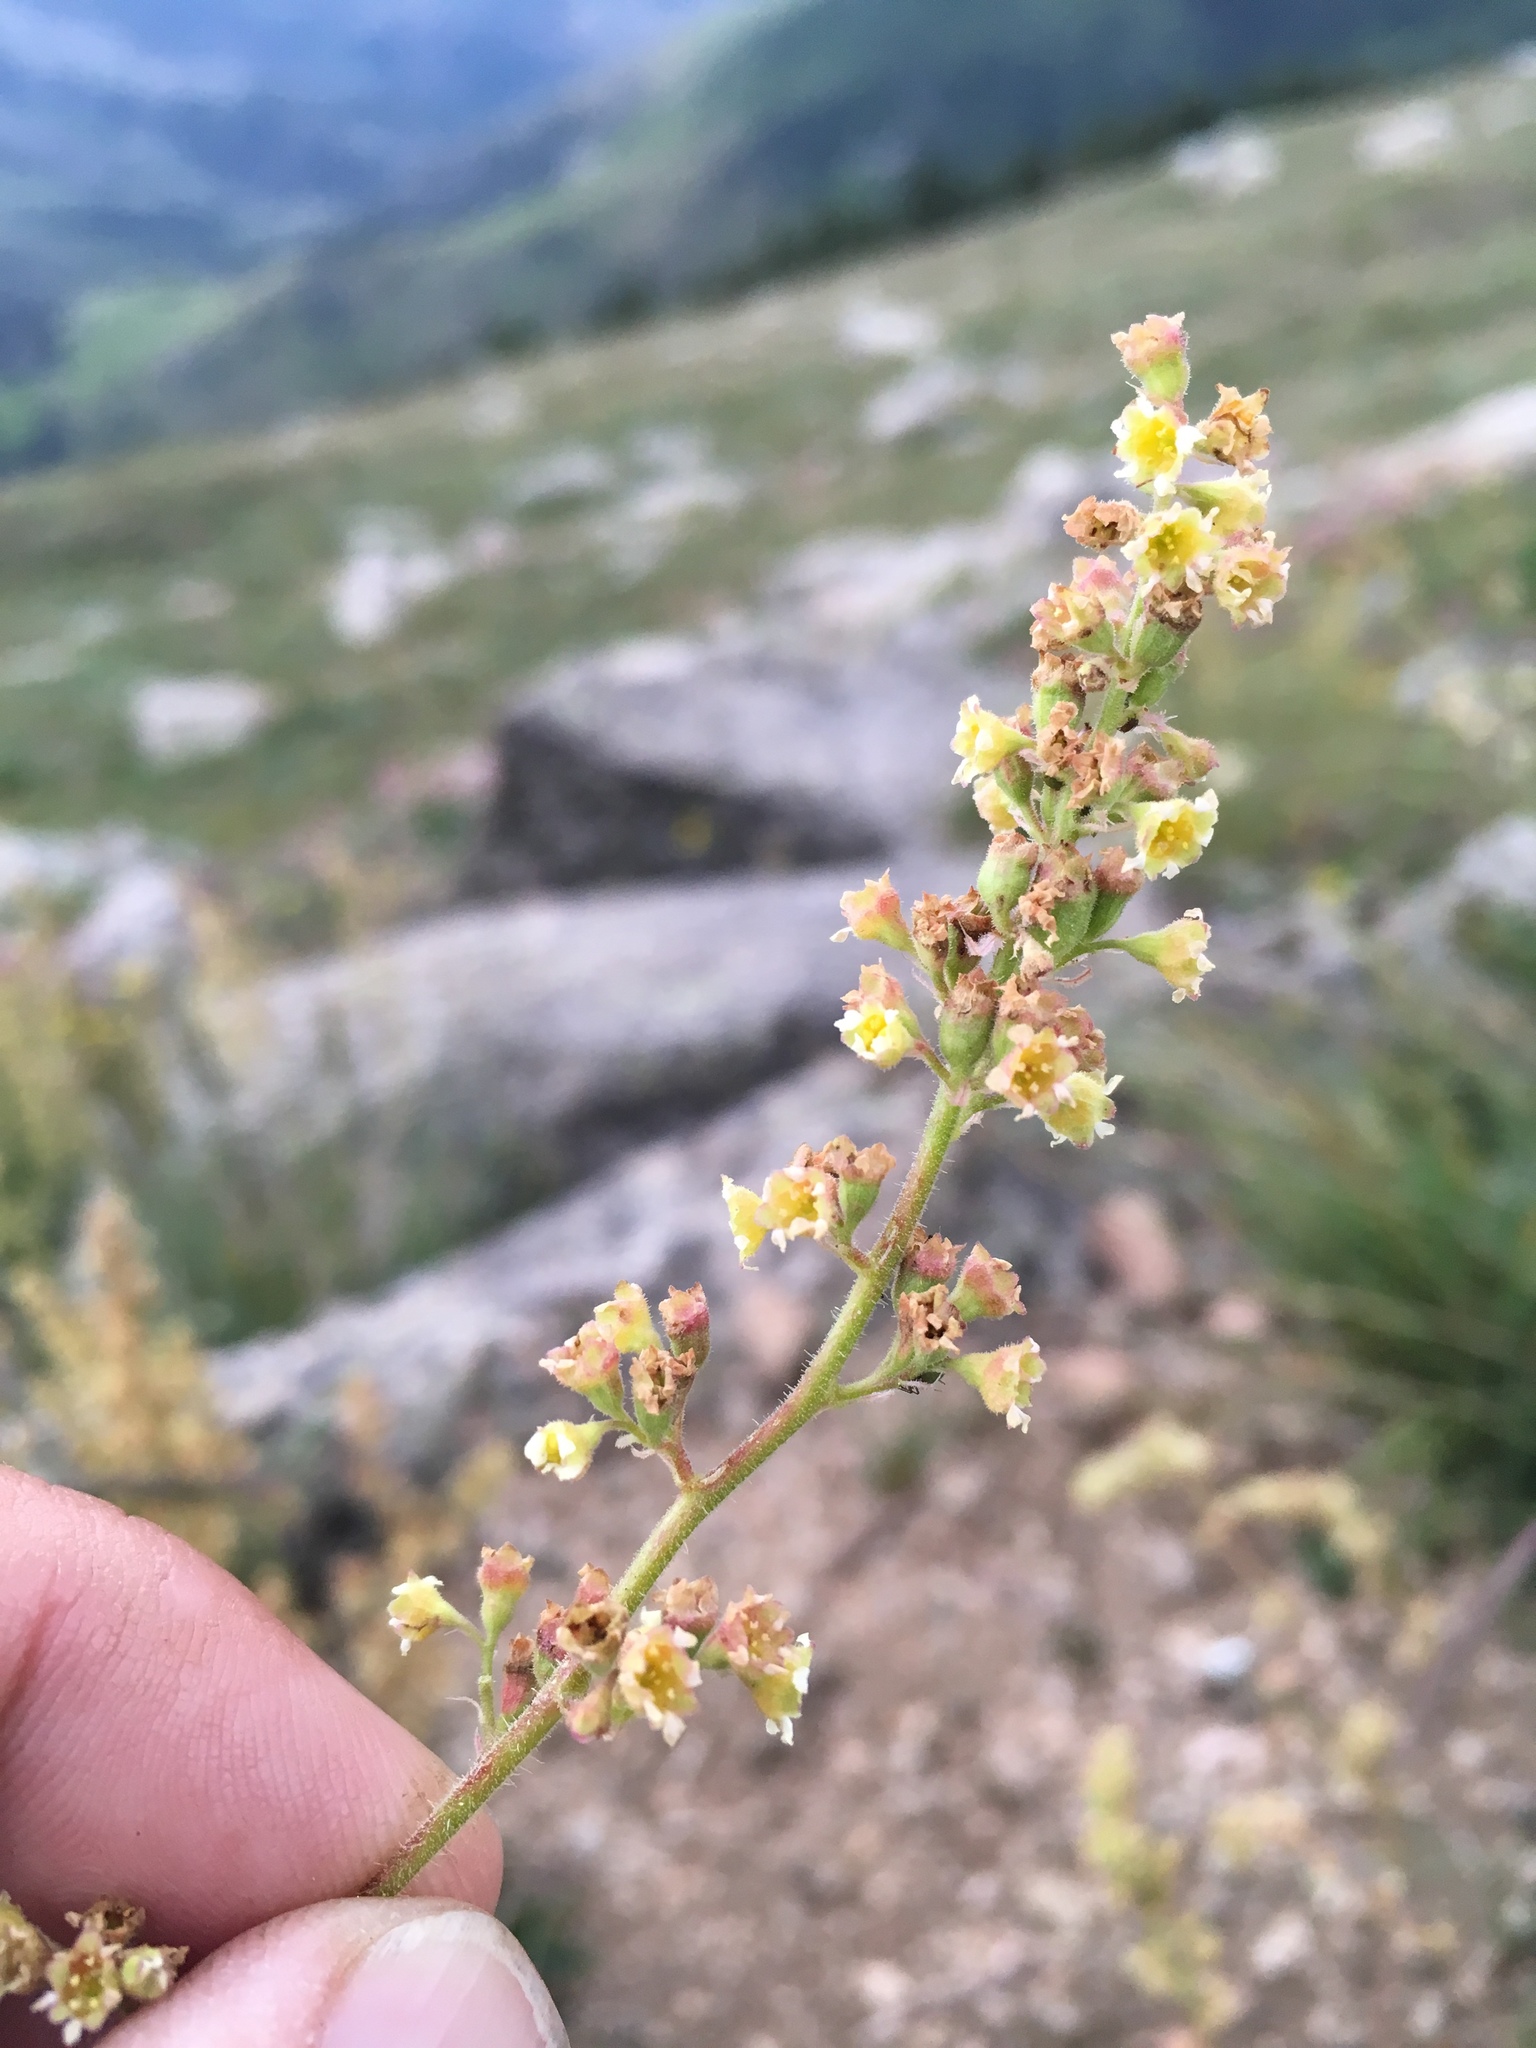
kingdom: Plantae
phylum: Tracheophyta
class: Magnoliopsida
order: Saxifragales
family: Saxifragaceae
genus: Heuchera
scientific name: Heuchera parvifolia
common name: Common alumroot
